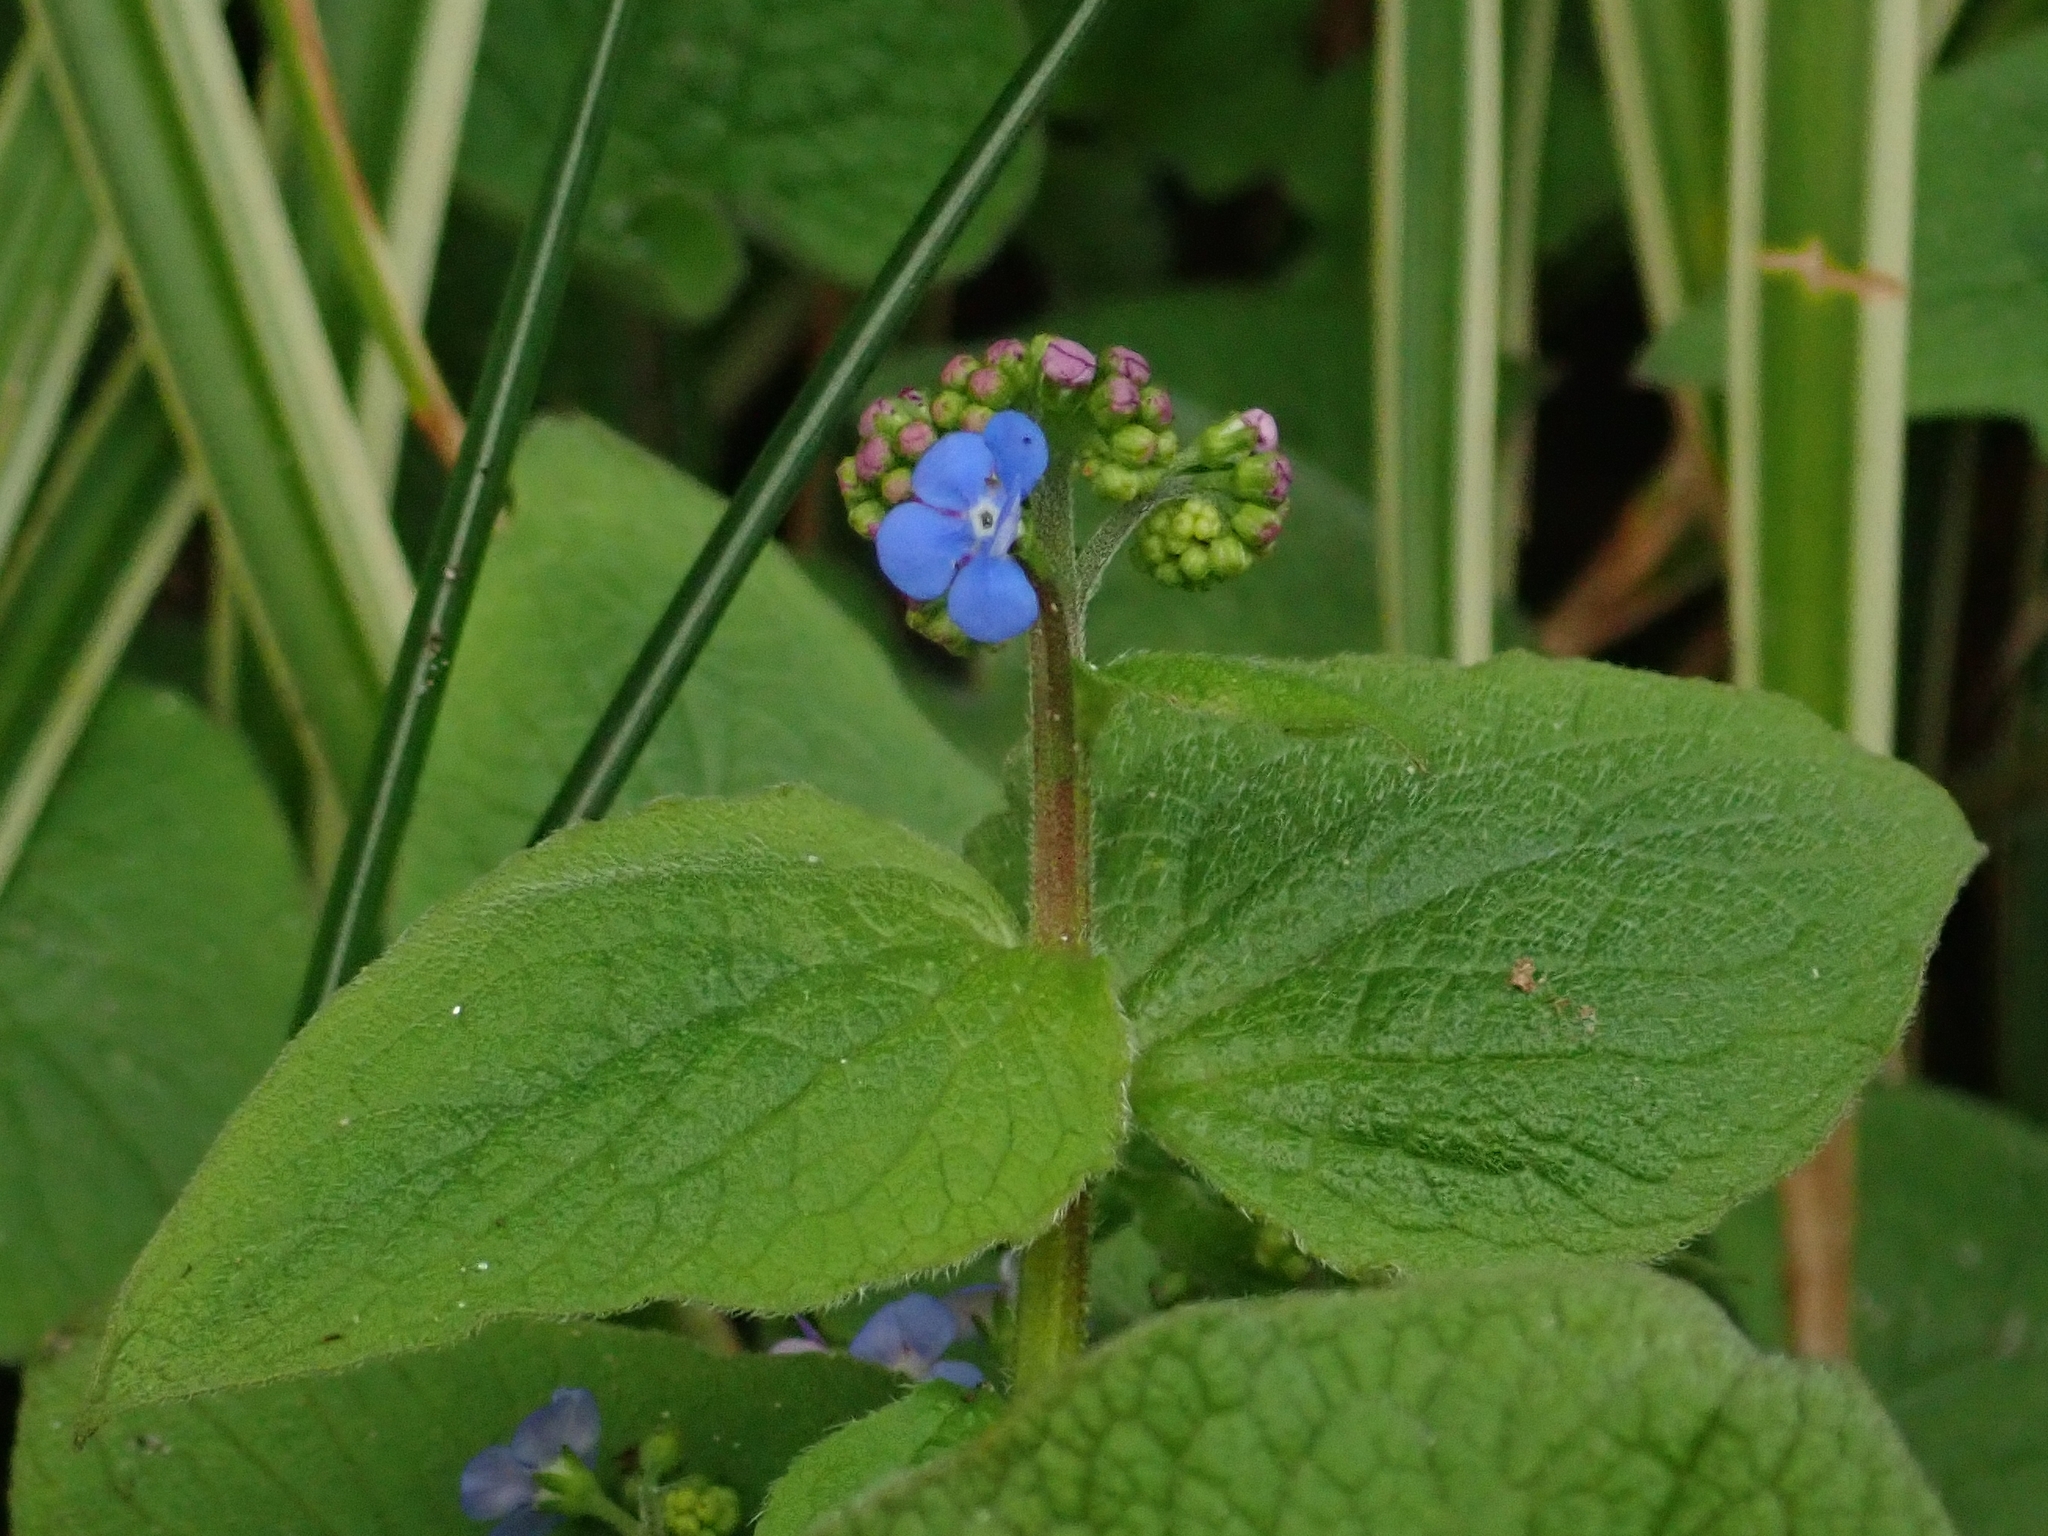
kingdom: Plantae
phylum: Tracheophyta
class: Magnoliopsida
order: Boraginales
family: Boraginaceae
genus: Brunnera
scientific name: Brunnera macrophylla
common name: Great forget-me-not
